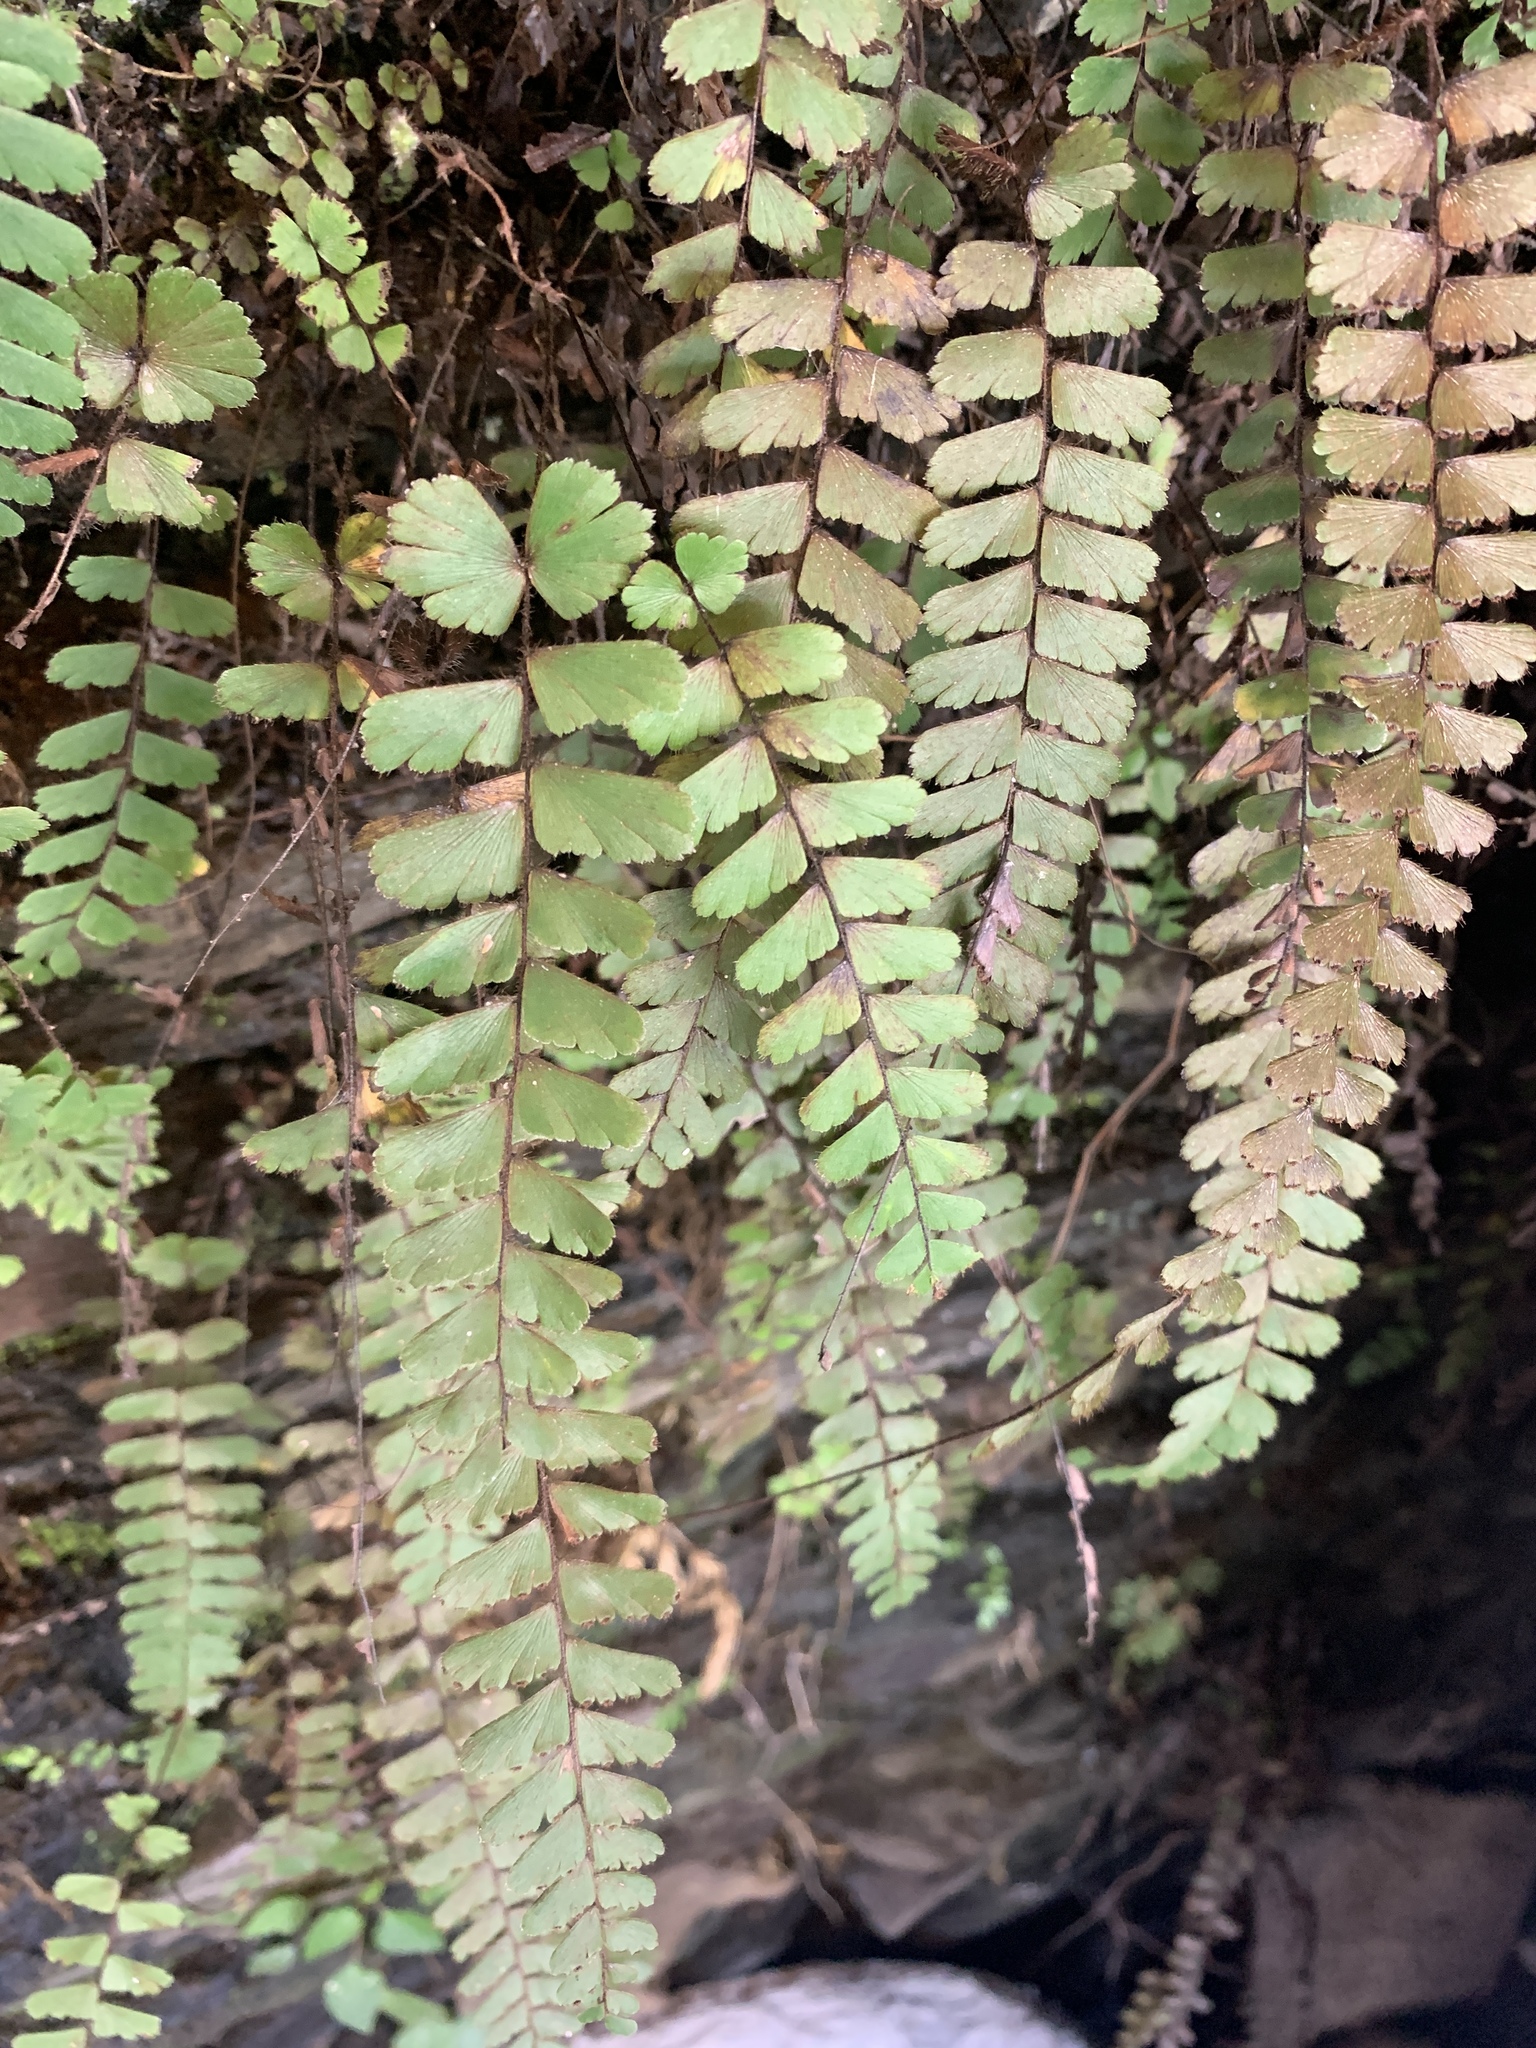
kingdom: Plantae
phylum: Tracheophyta
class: Polypodiopsida
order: Polypodiales
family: Pteridaceae
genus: Adiantum
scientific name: Adiantum ciliatum
